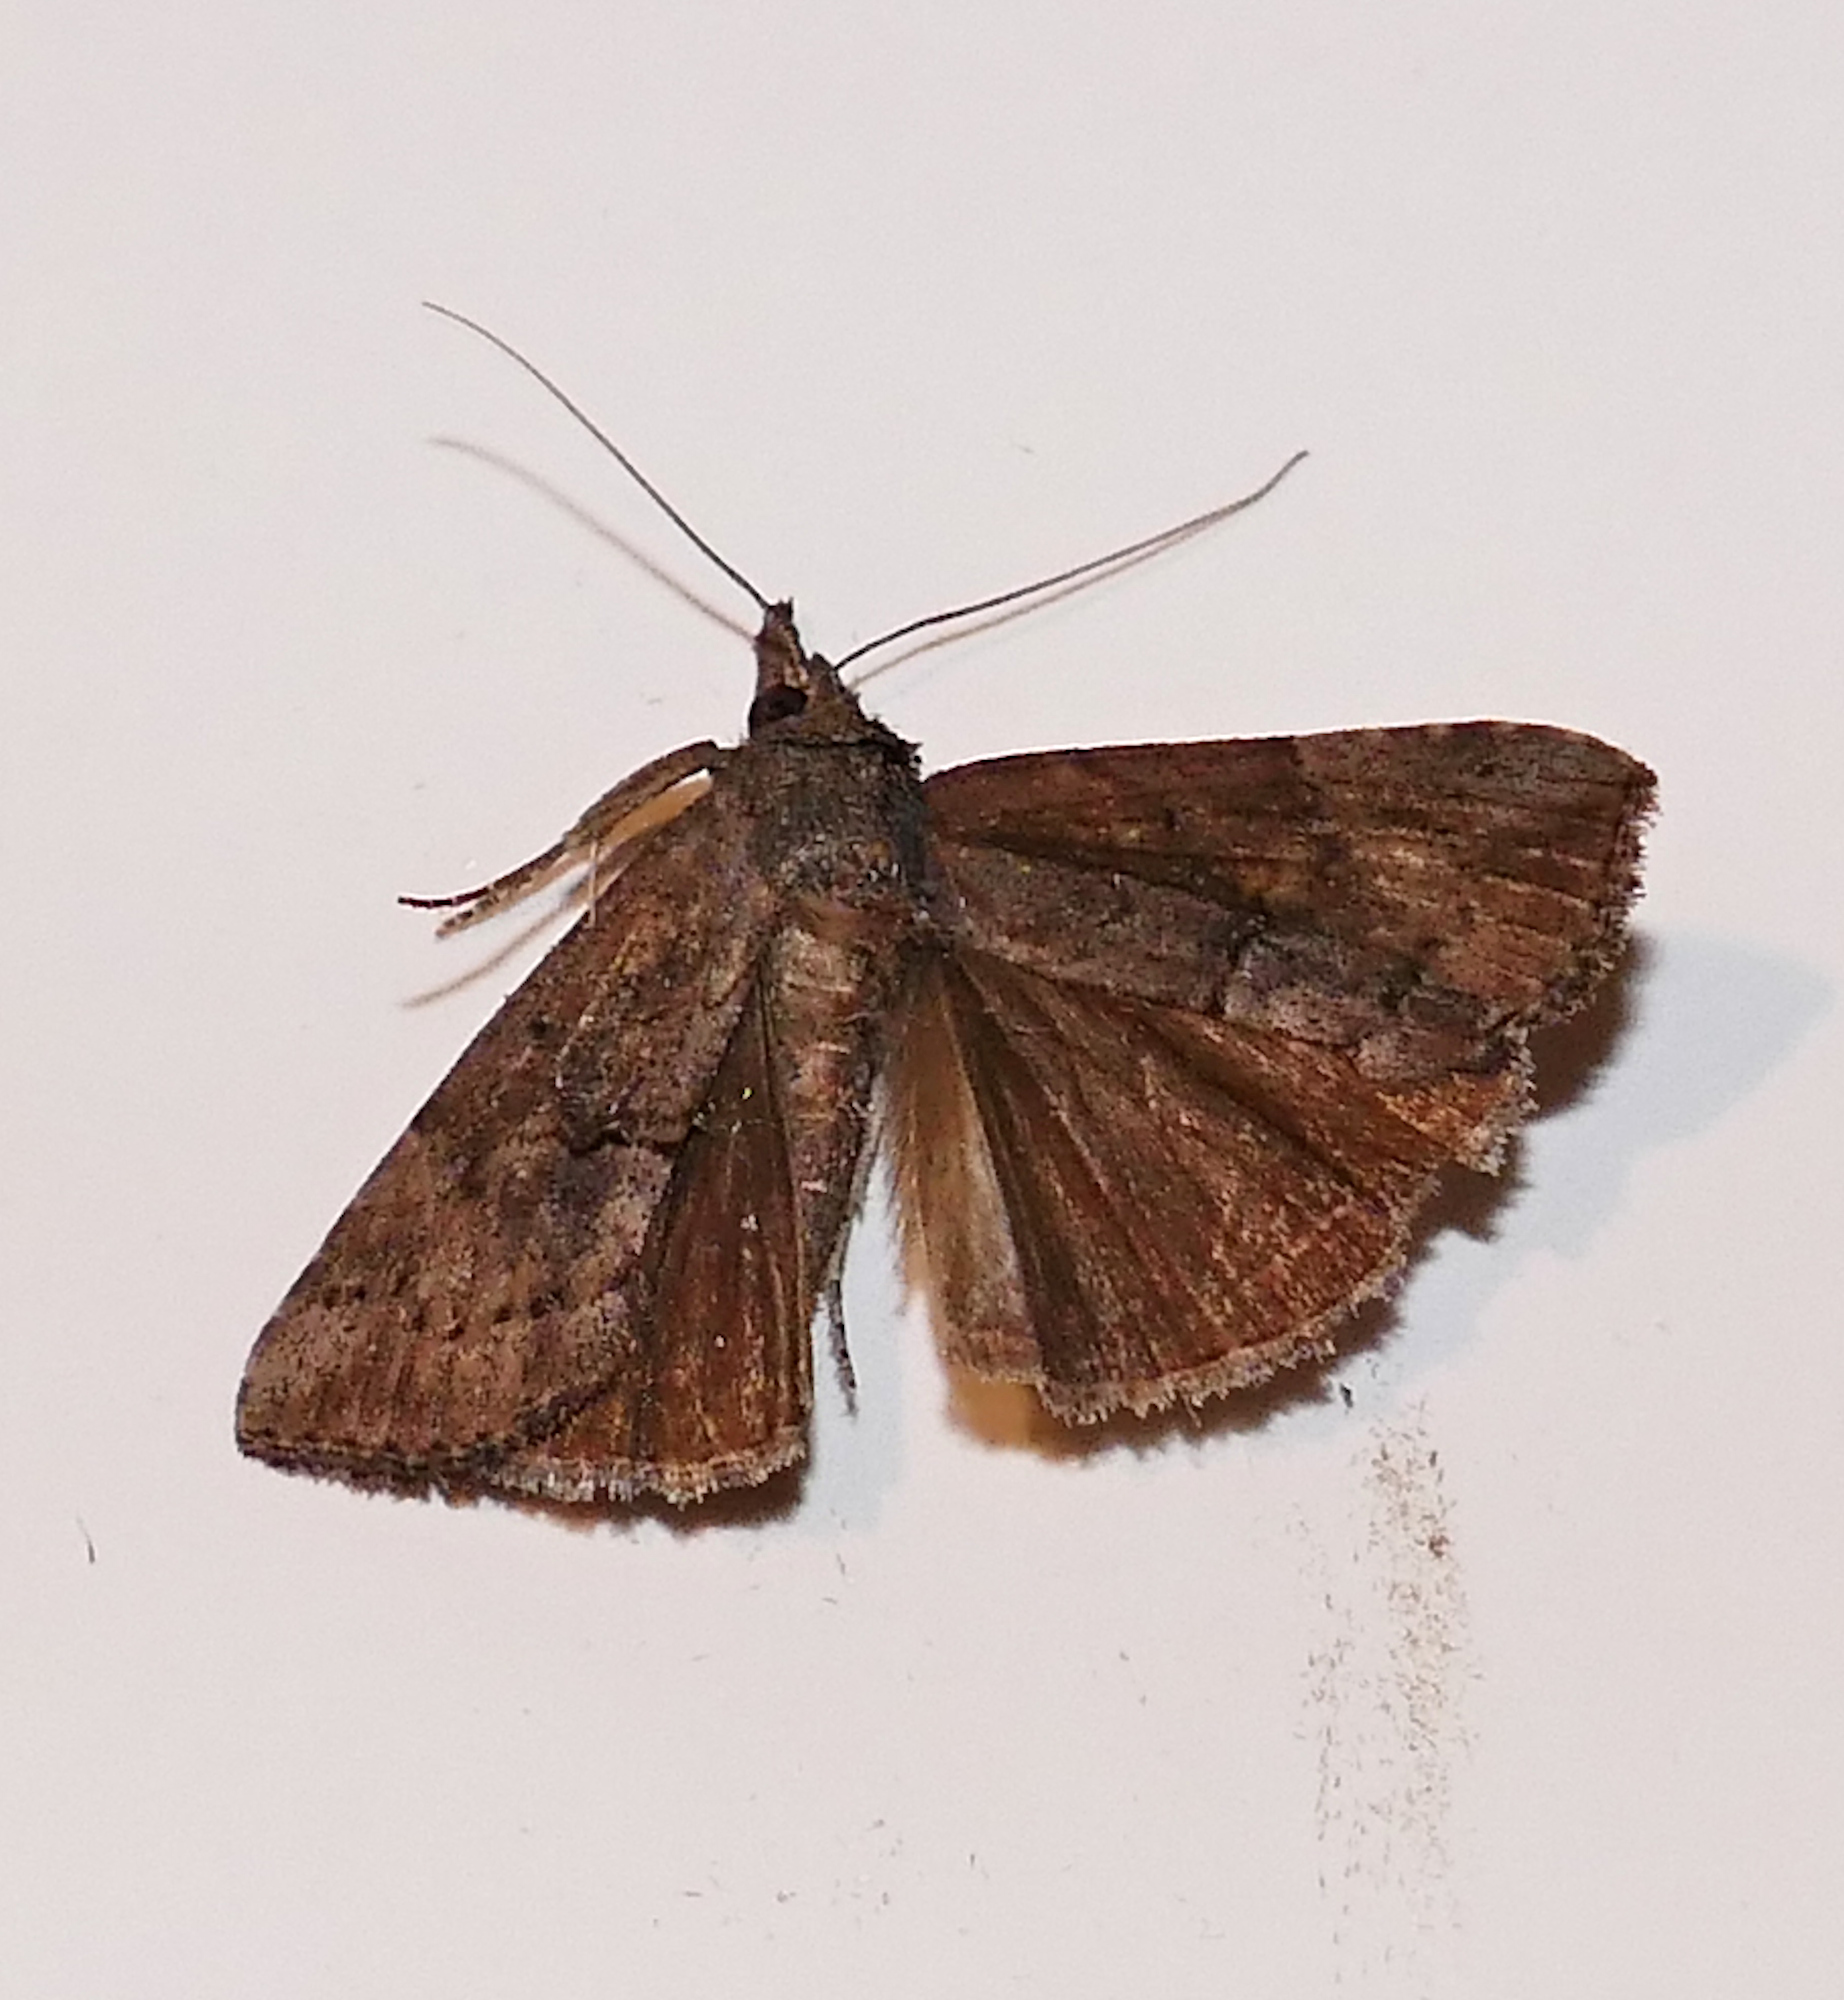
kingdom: Animalia
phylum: Arthropoda
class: Insecta
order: Lepidoptera
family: Erebidae
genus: Hypena
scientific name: Hypena scabra
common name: Green cloverworm
